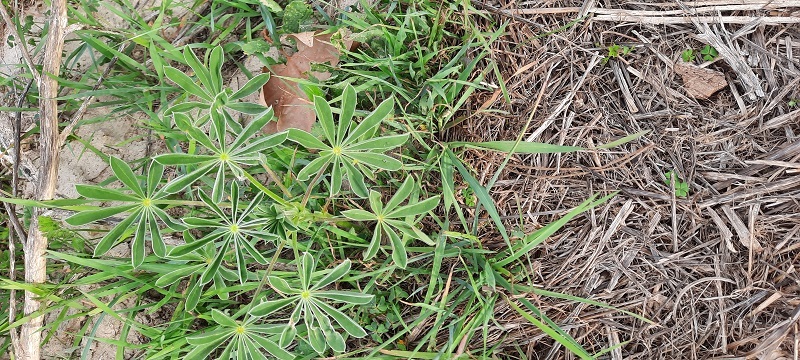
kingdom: Plantae
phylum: Tracheophyta
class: Magnoliopsida
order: Fabales
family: Fabaceae
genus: Lupinus
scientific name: Lupinus cosentinii
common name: Hairy blue lupin
